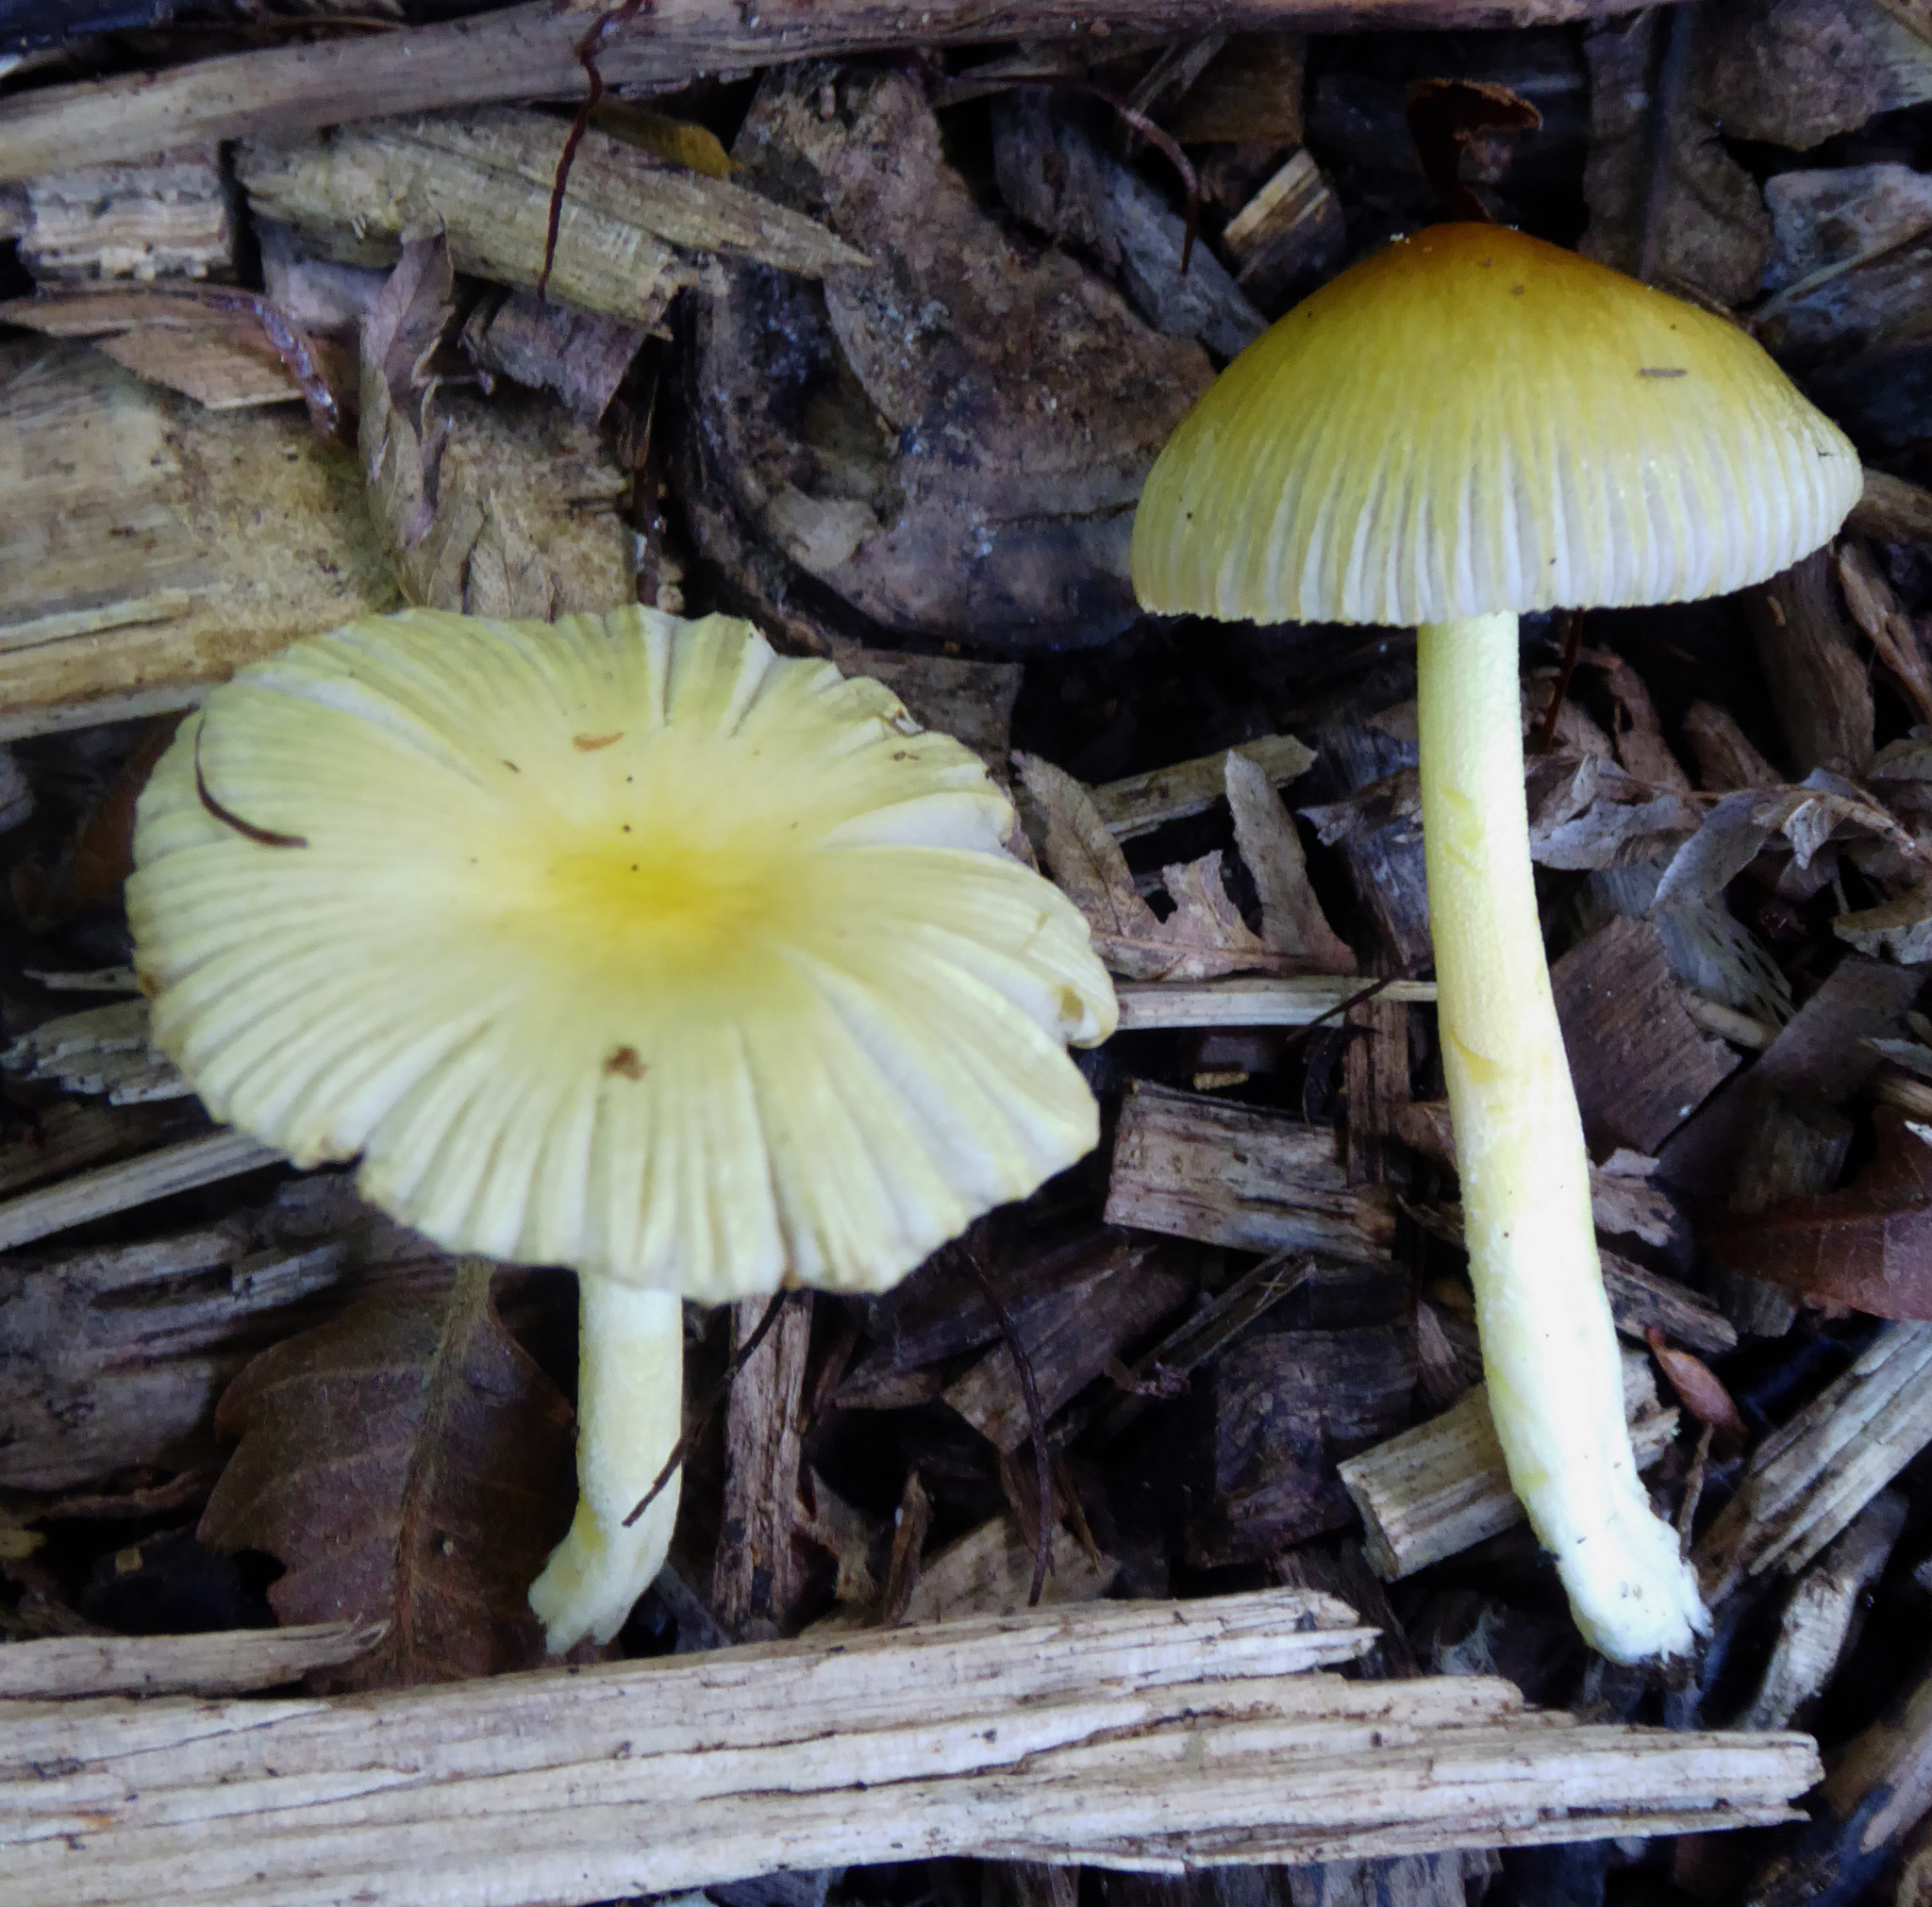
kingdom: Fungi
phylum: Basidiomycota
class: Agaricomycetes
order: Agaricales
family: Bolbitiaceae
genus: Bolbitius
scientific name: Bolbitius titubans
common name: Yellow fieldcap
